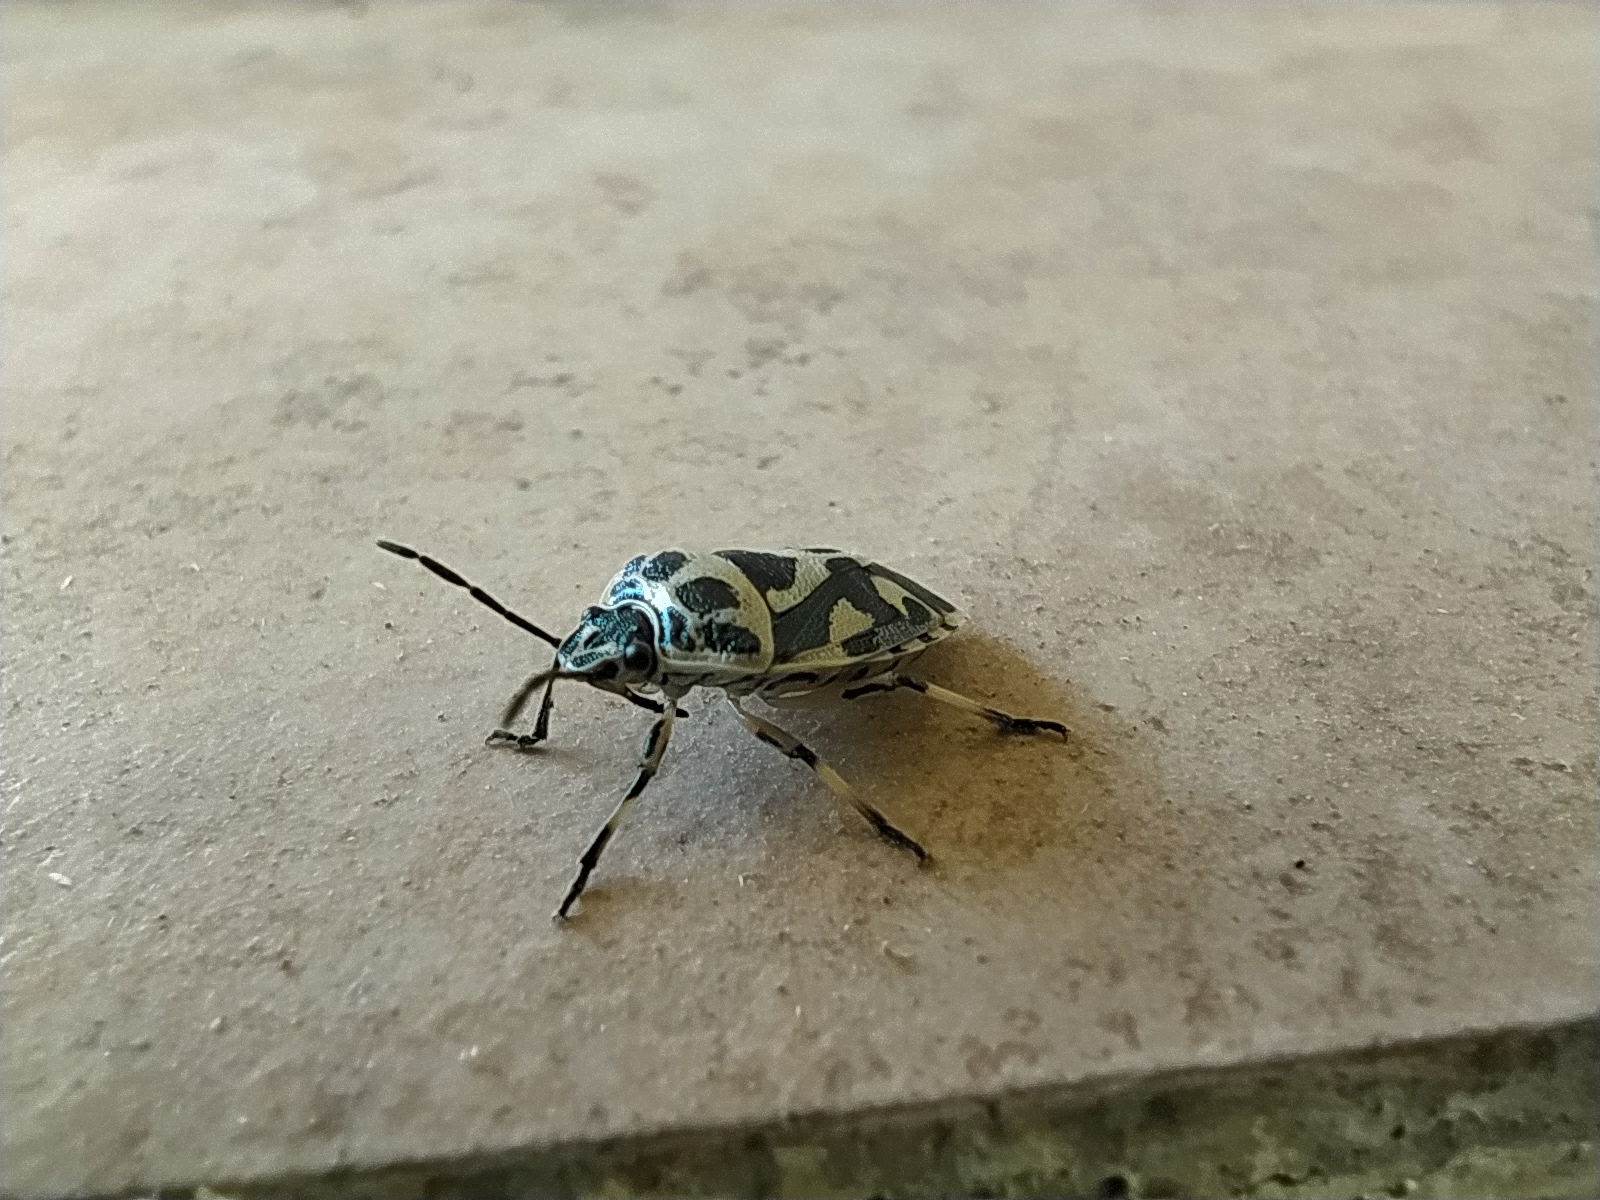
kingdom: Animalia
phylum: Arthropoda
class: Insecta
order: Hemiptera
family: Pentatomidae
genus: Eurydema
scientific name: Eurydema ornata
